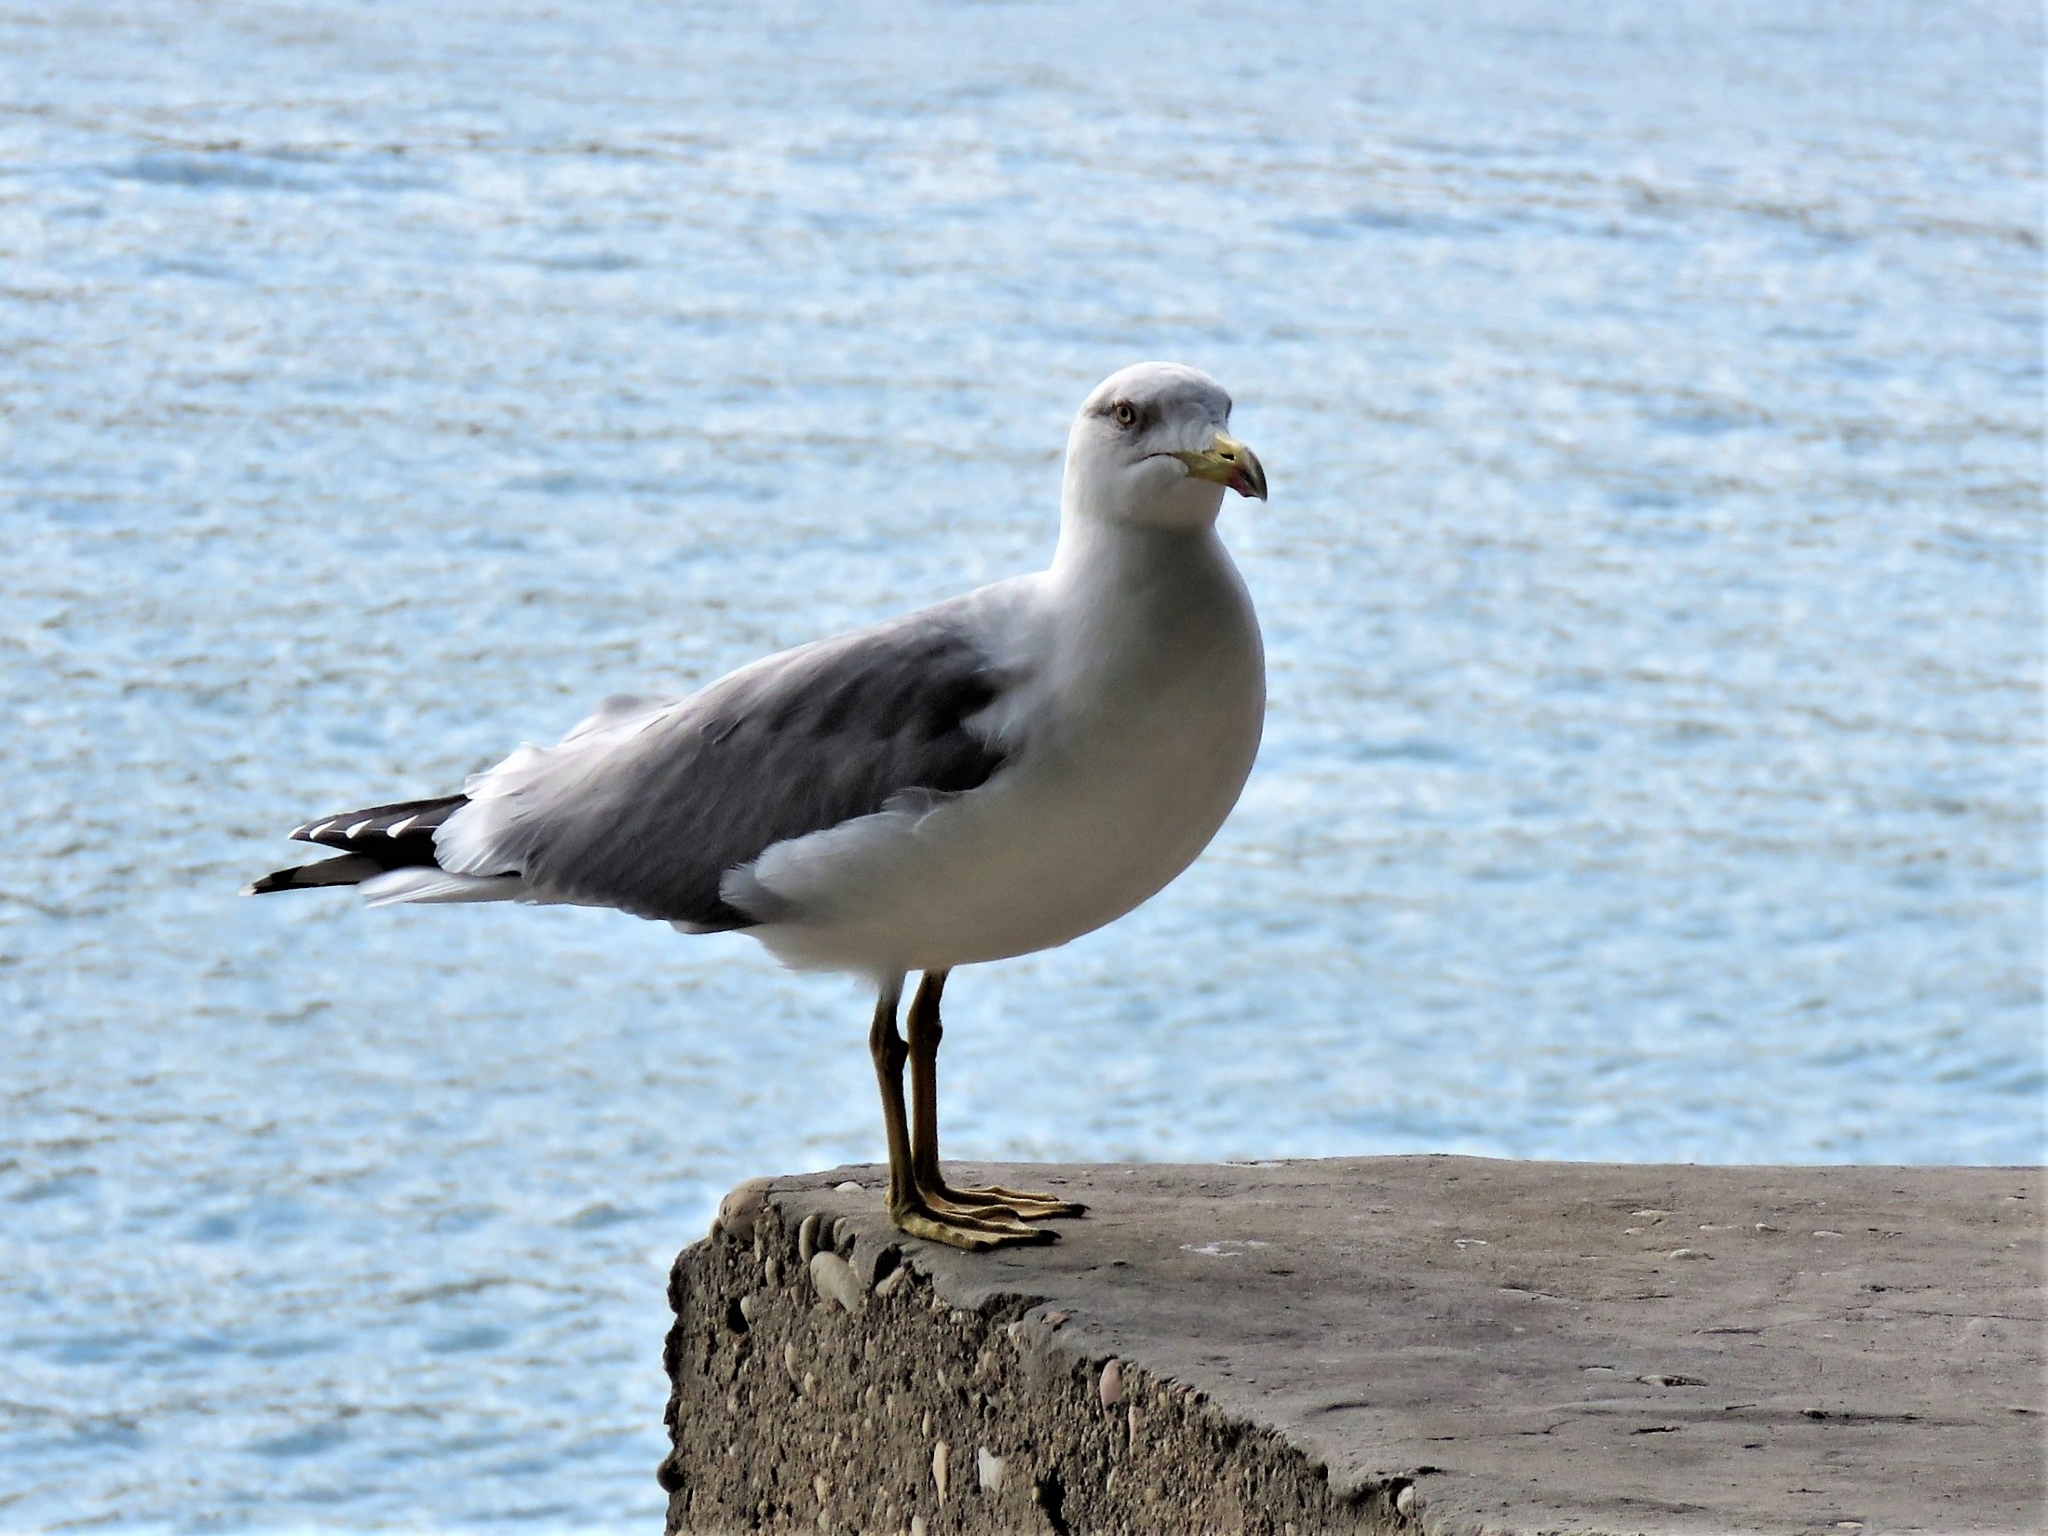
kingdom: Animalia
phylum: Chordata
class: Aves
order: Charadriiformes
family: Laridae
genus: Larus
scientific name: Larus michahellis
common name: Yellow-legged gull
